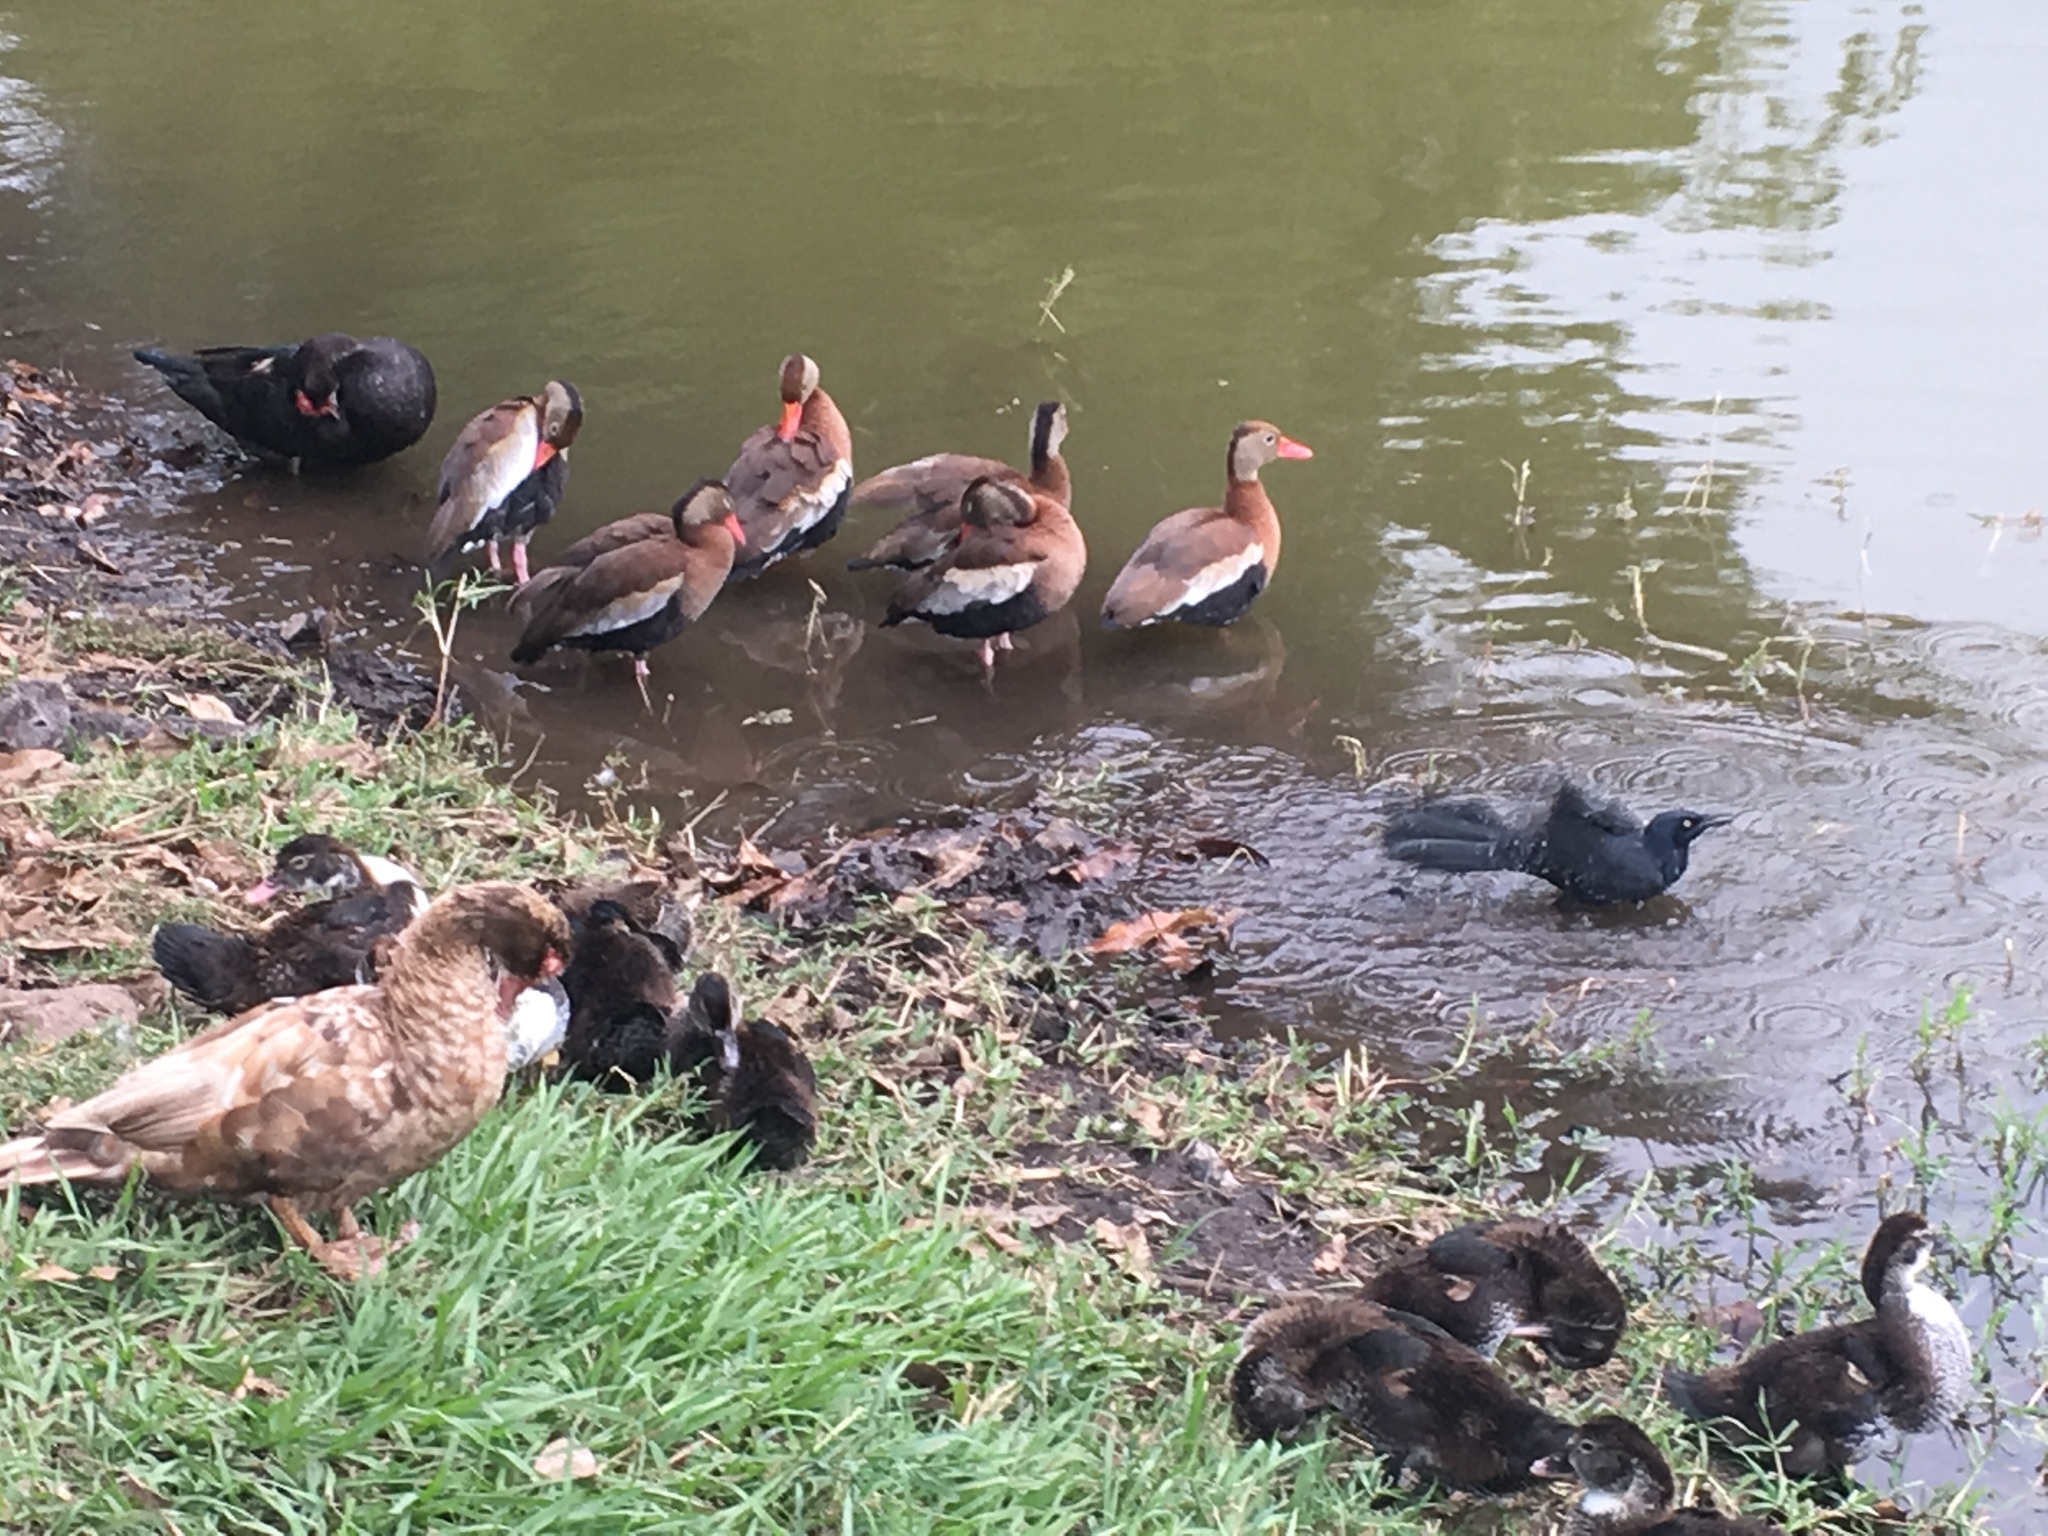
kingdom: Animalia
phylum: Chordata
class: Aves
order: Passeriformes
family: Icteridae
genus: Quiscalus
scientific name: Quiscalus mexicanus
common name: Great-tailed grackle
